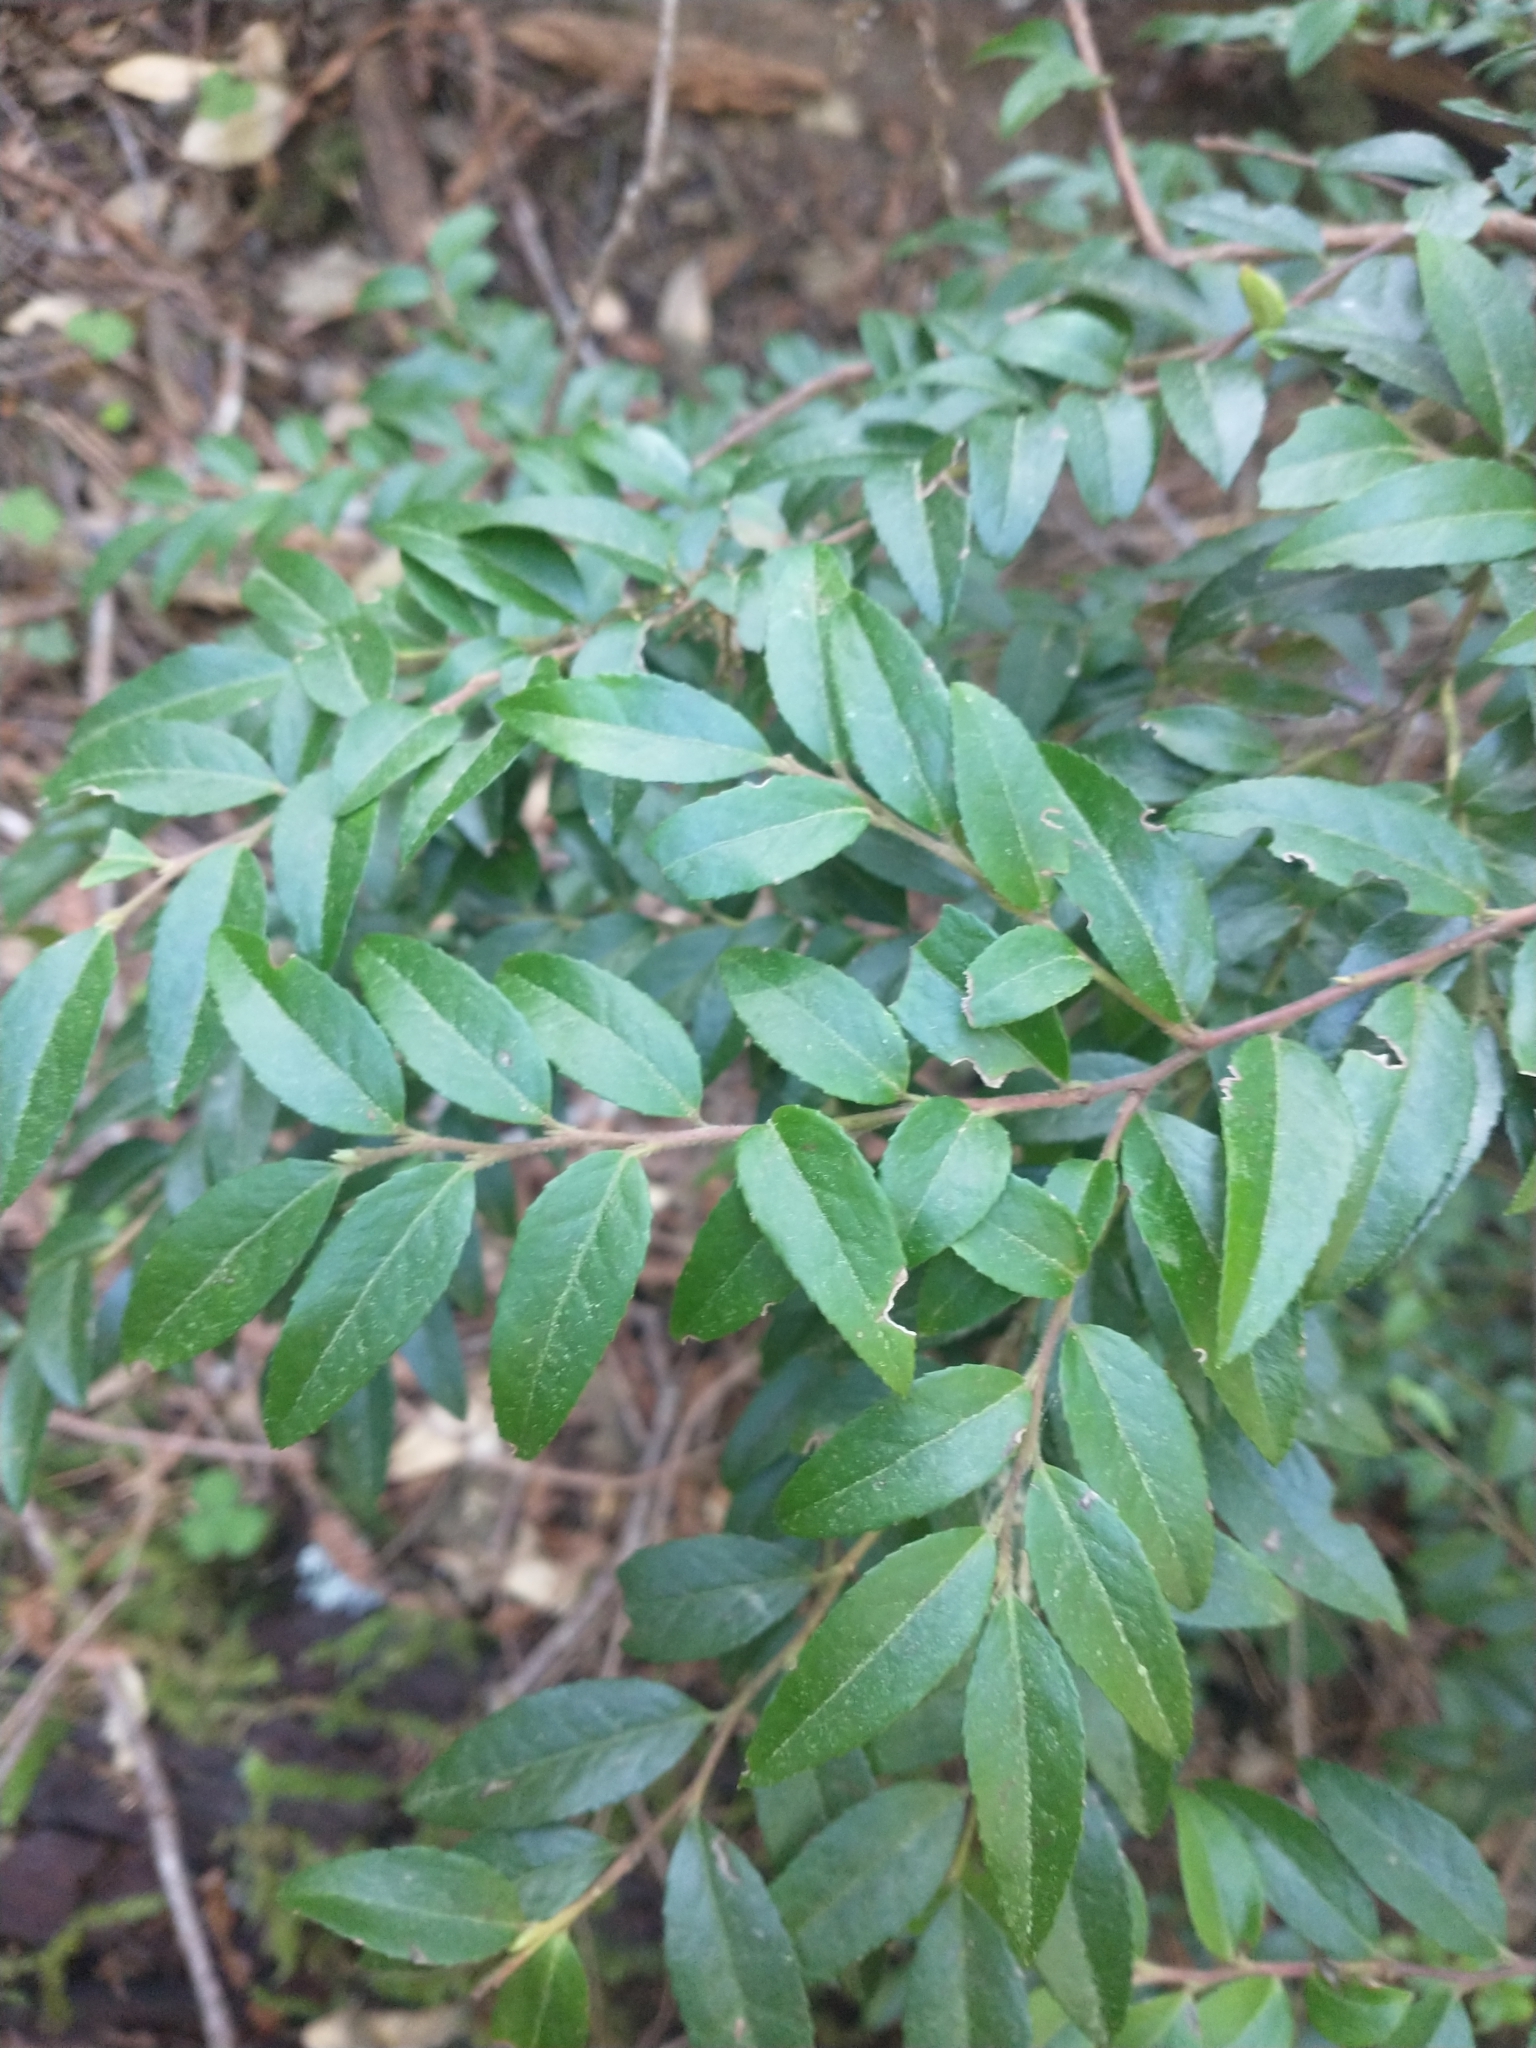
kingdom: Plantae
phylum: Tracheophyta
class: Magnoliopsida
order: Ericales
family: Ericaceae
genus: Vaccinium
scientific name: Vaccinium ovatum
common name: California-huckleberry
